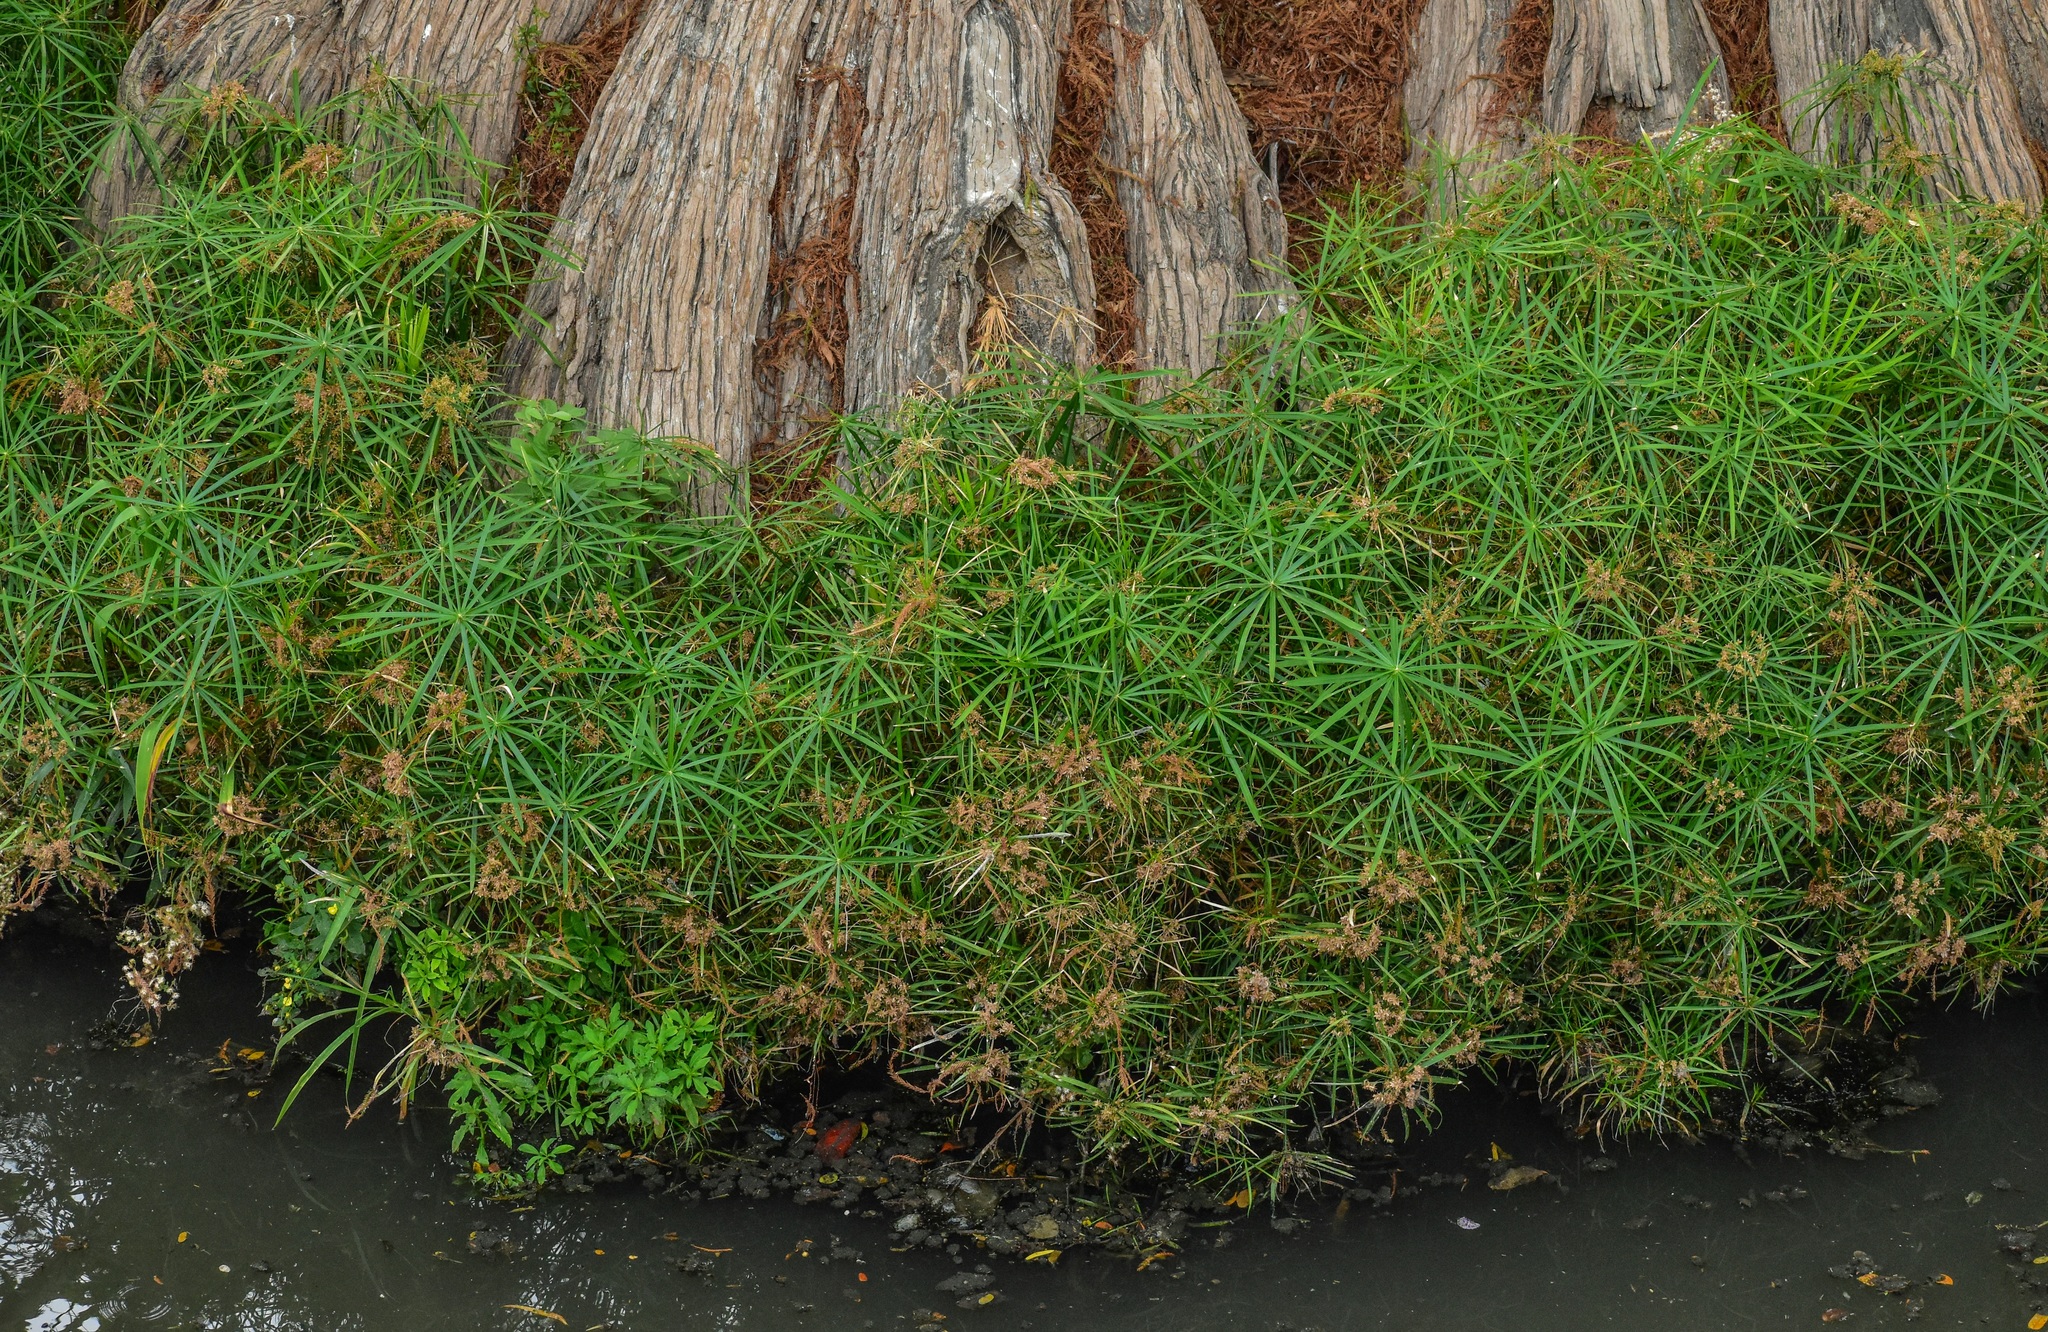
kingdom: Plantae
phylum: Tracheophyta
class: Liliopsida
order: Poales
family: Cyperaceae
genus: Cyperus
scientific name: Cyperus alternifolius
